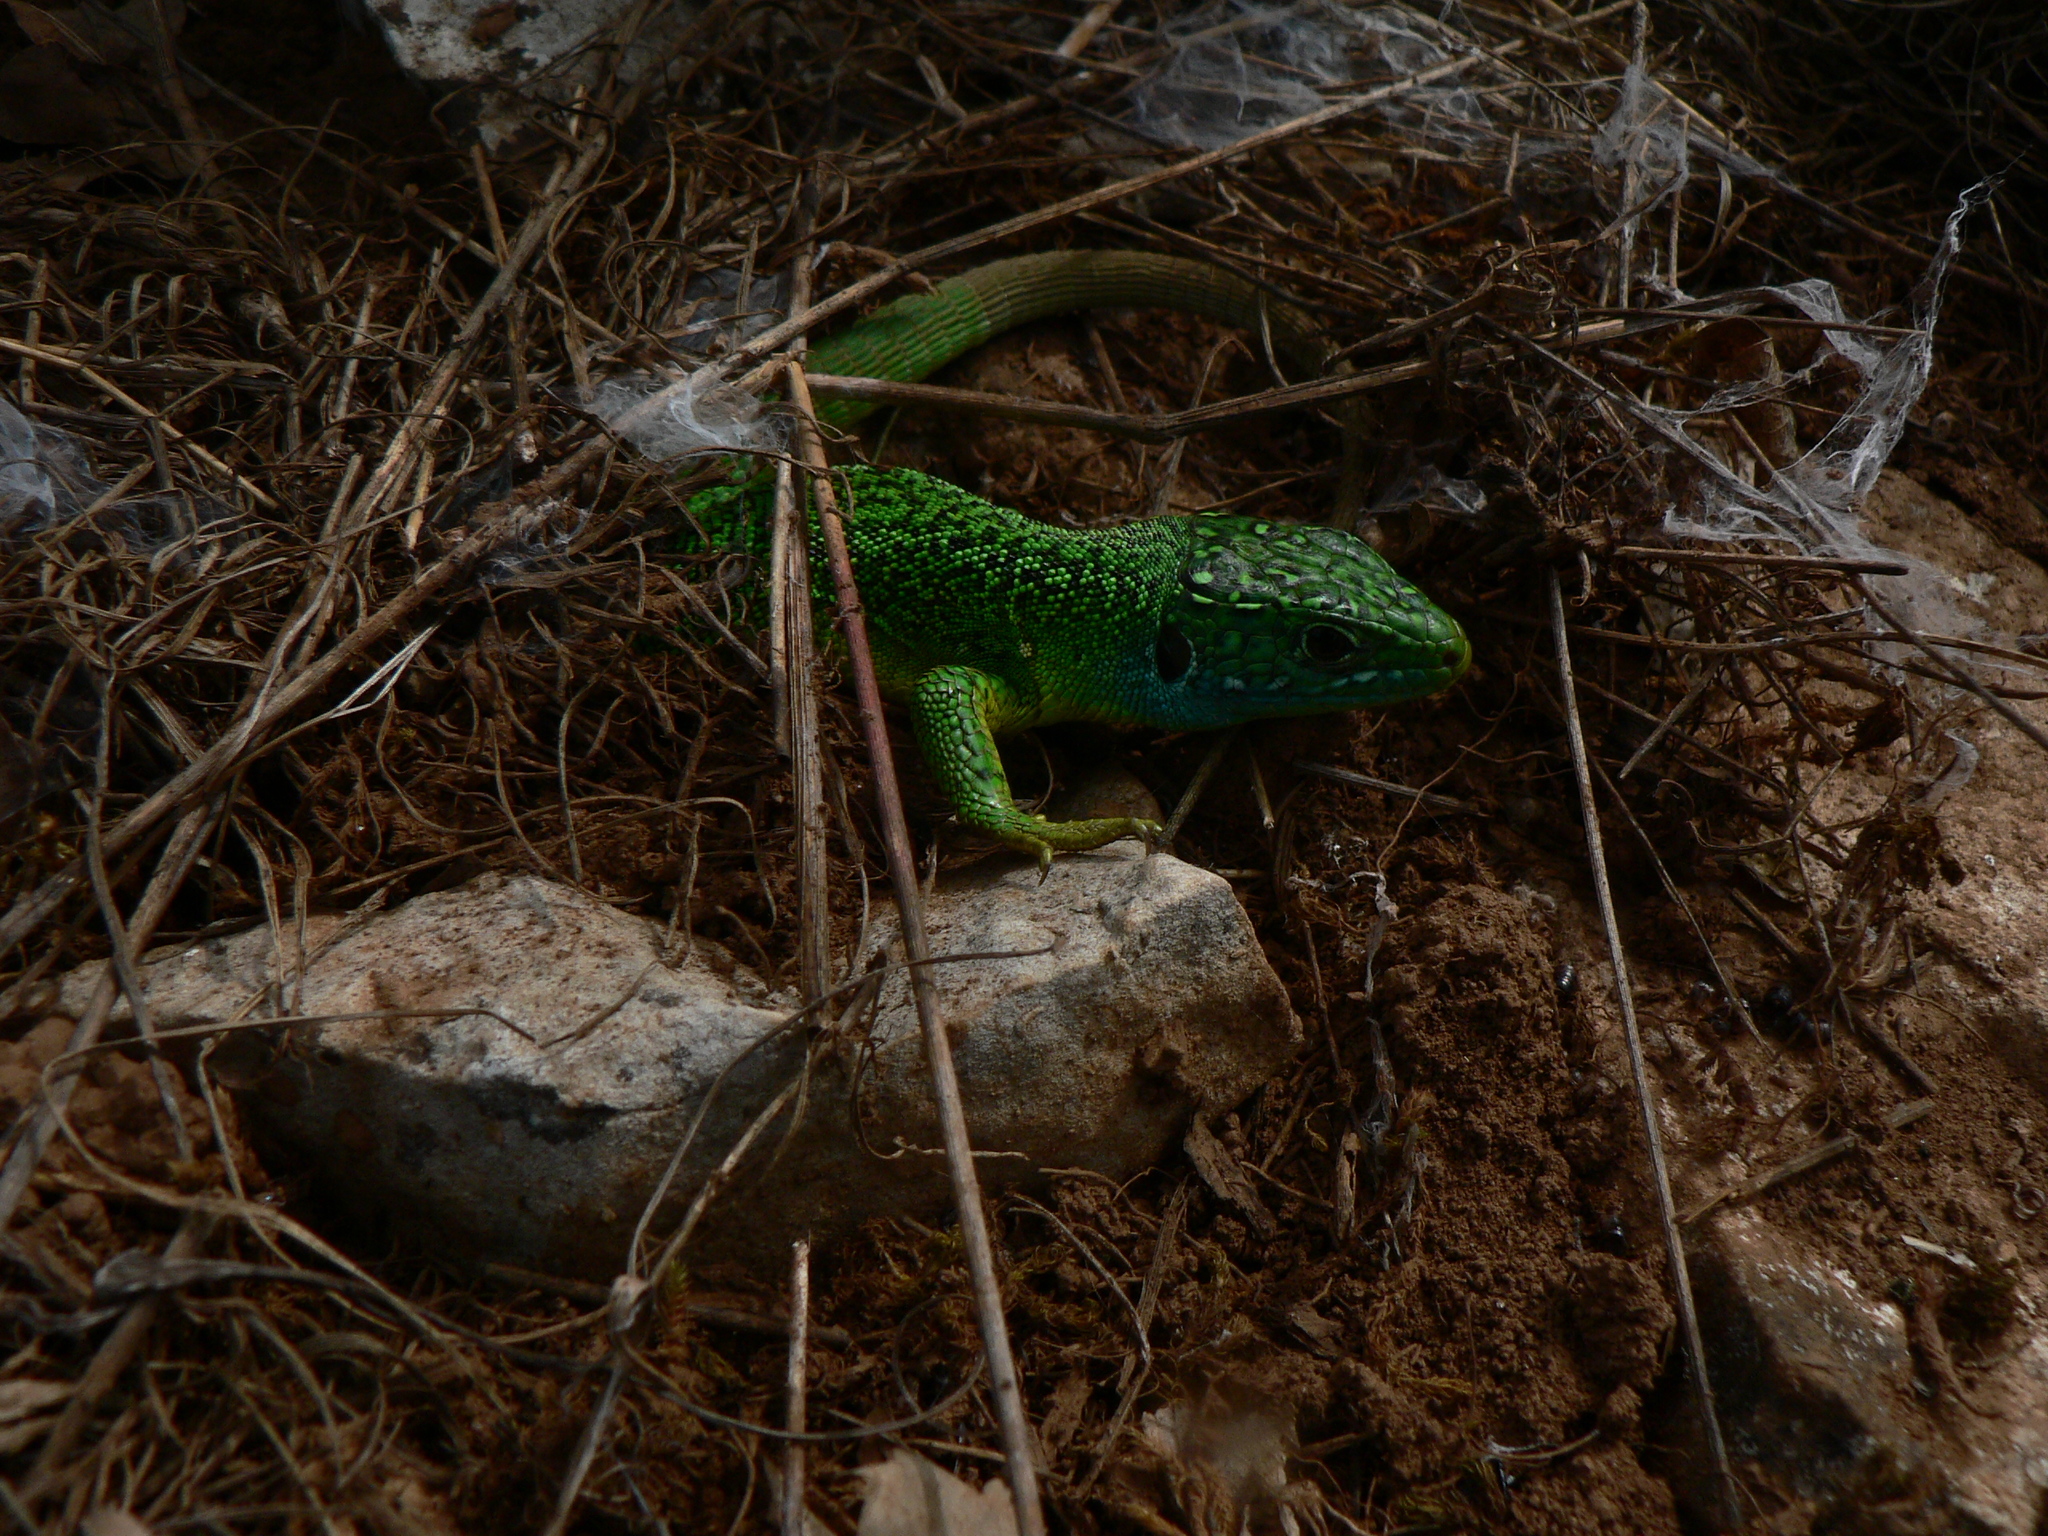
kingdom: Animalia
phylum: Chordata
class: Squamata
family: Lacertidae
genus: Lacerta
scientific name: Lacerta bilineata
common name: Western green lizard
